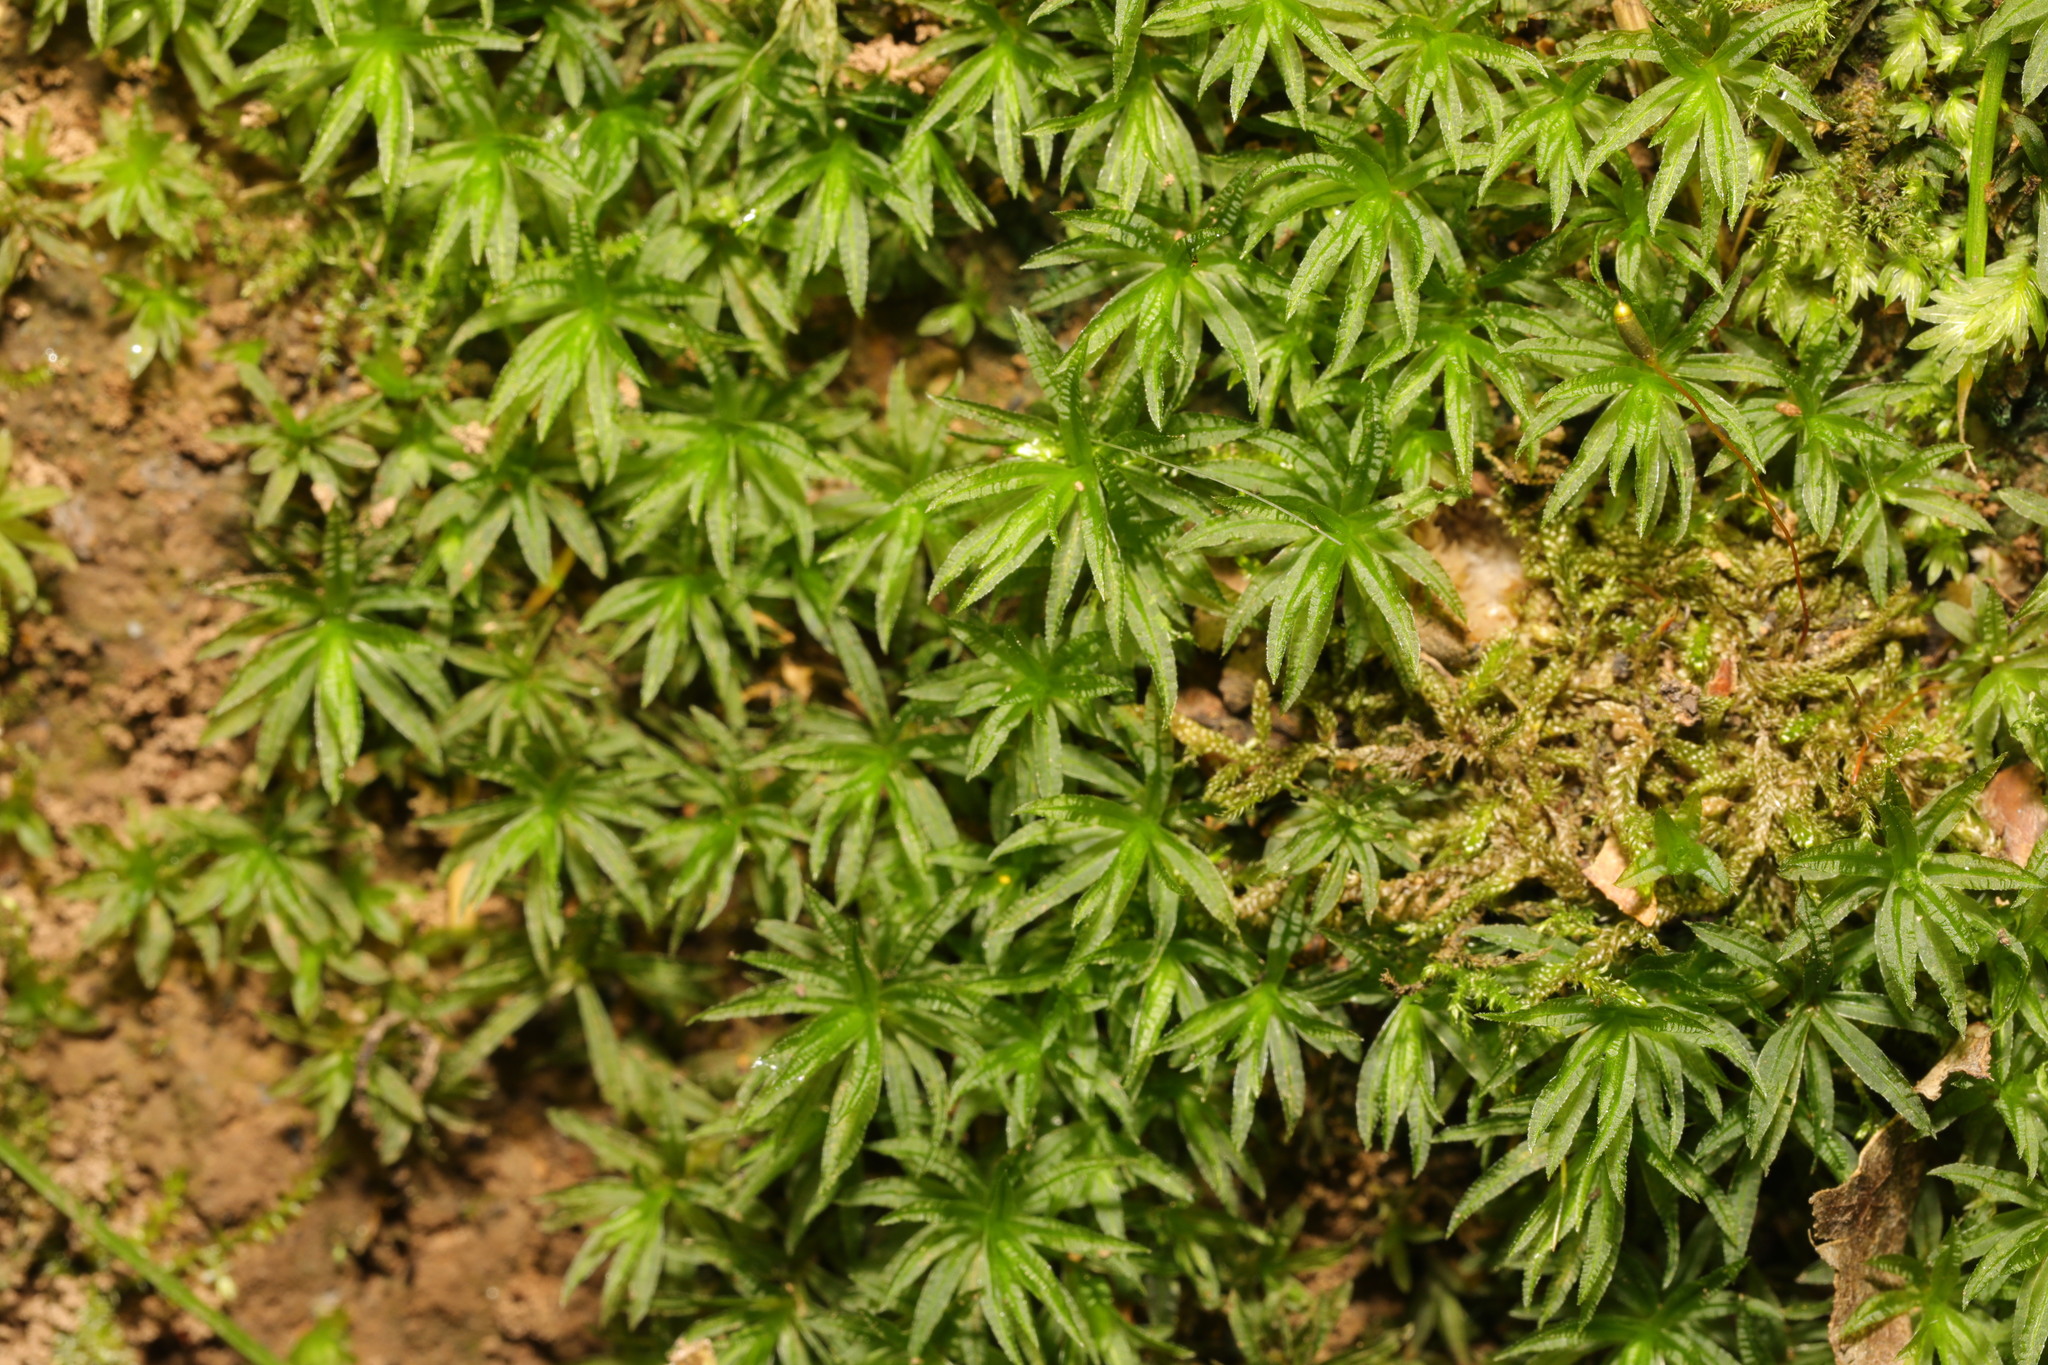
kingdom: Plantae
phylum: Bryophyta
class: Polytrichopsida
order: Polytrichales
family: Polytrichaceae
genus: Atrichum
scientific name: Atrichum undulatum
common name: Common smoothcap
